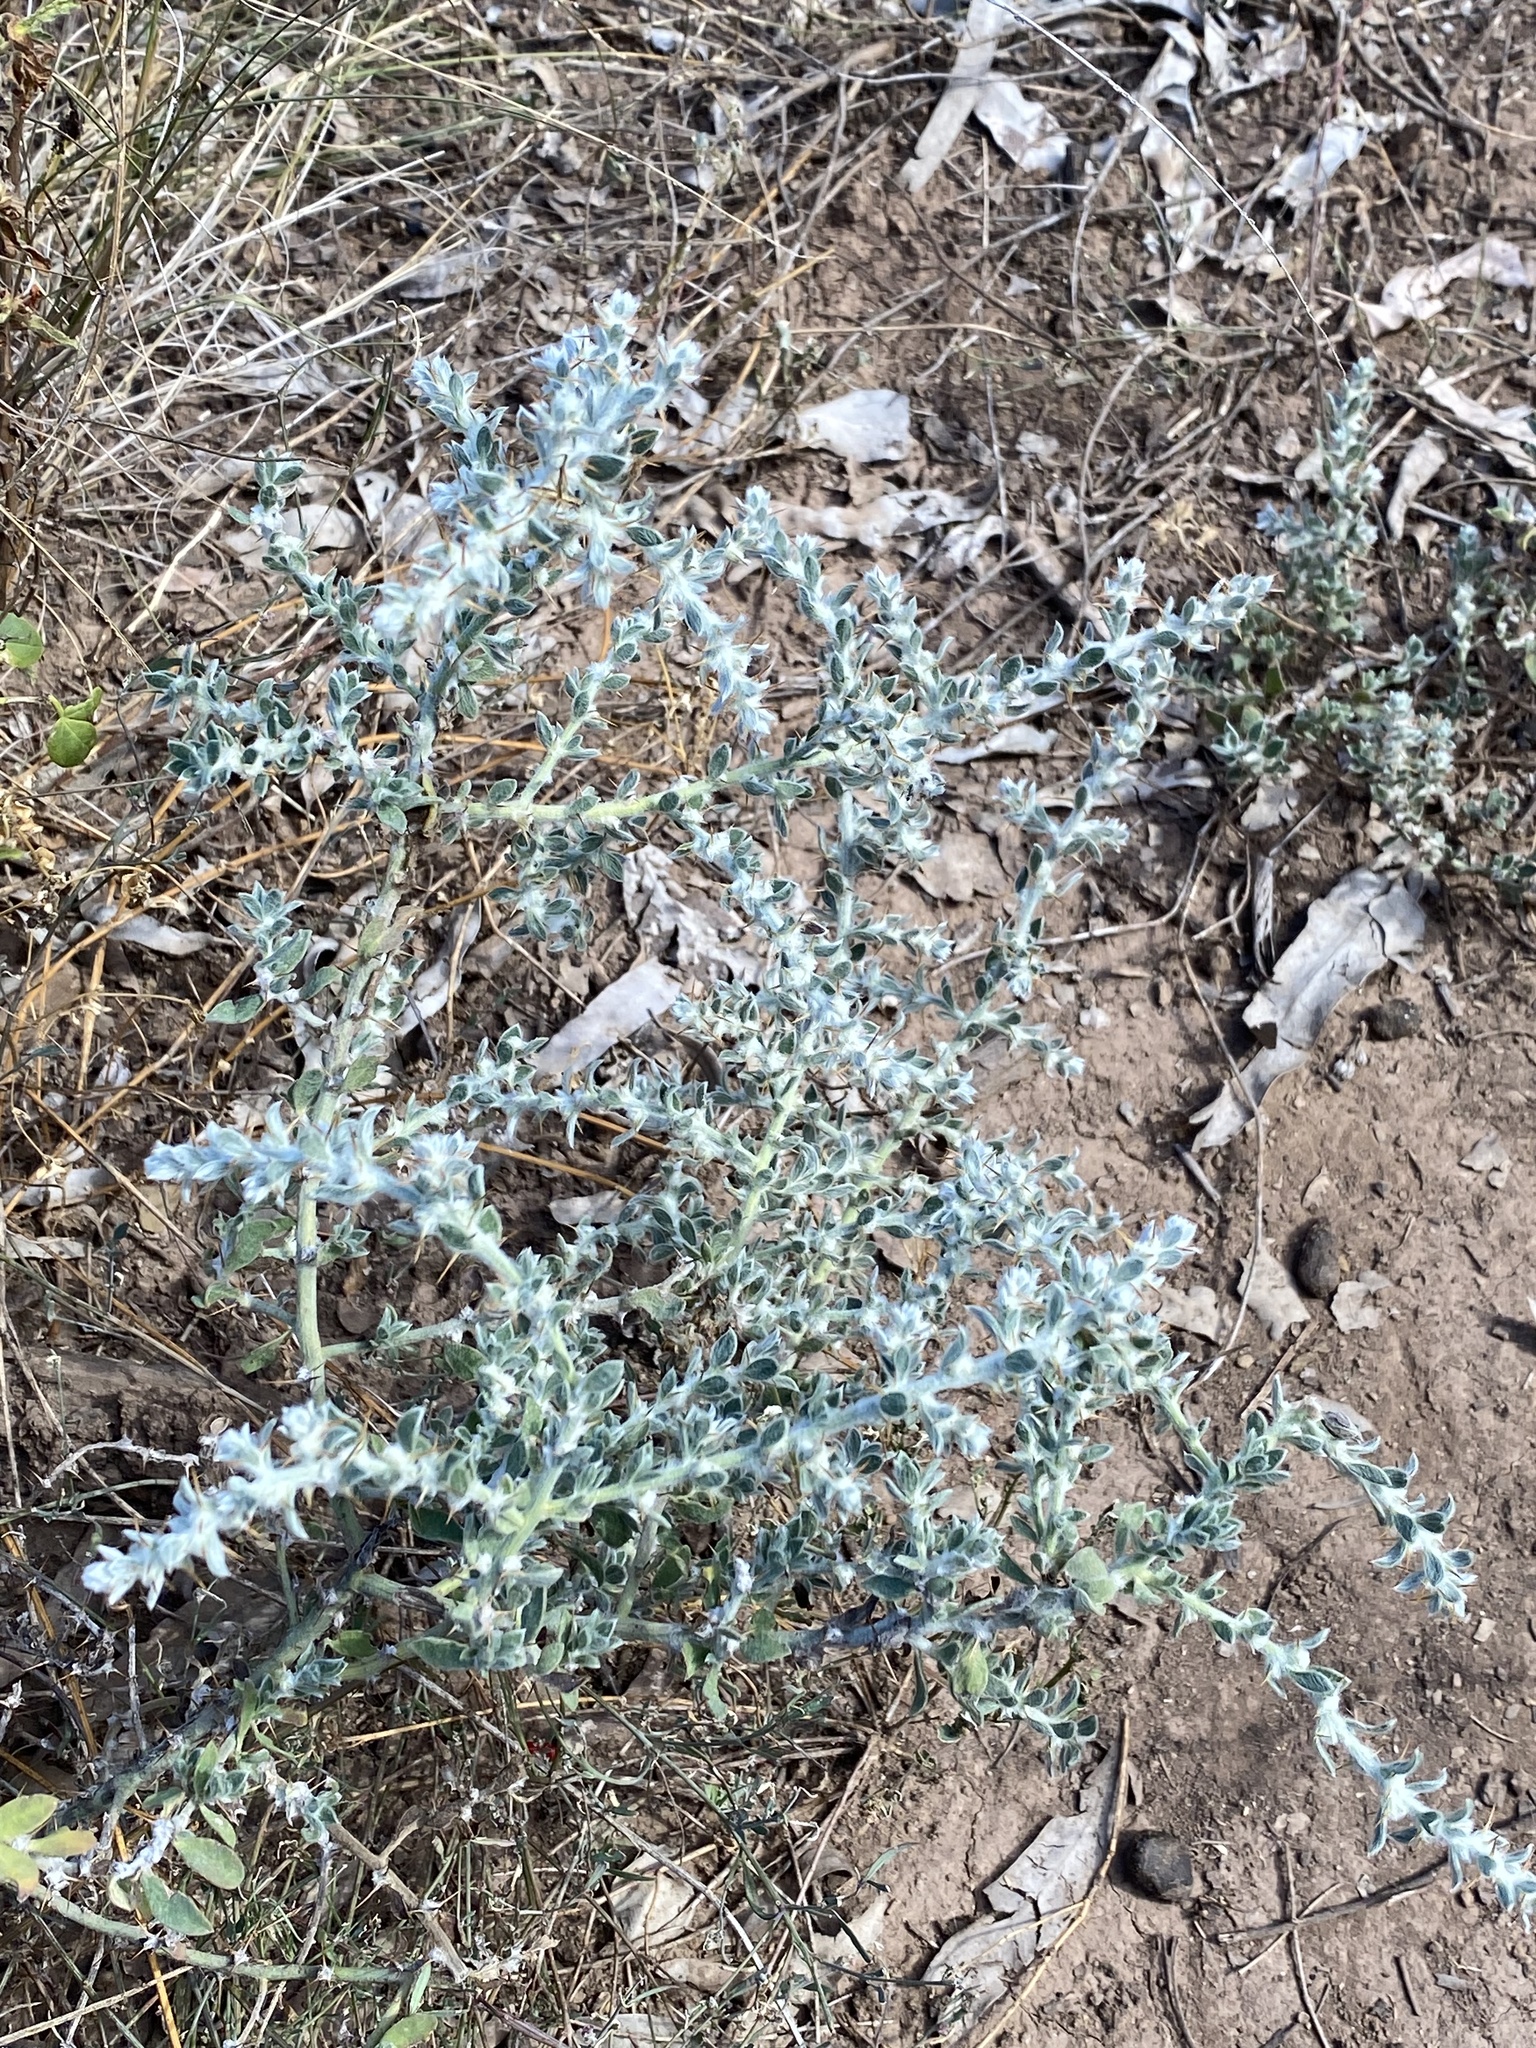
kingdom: Plantae
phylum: Tracheophyta
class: Magnoliopsida
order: Caryophyllales
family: Amaranthaceae
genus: Sclerolaena
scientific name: Sclerolaena birchii
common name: Galvanized bur
